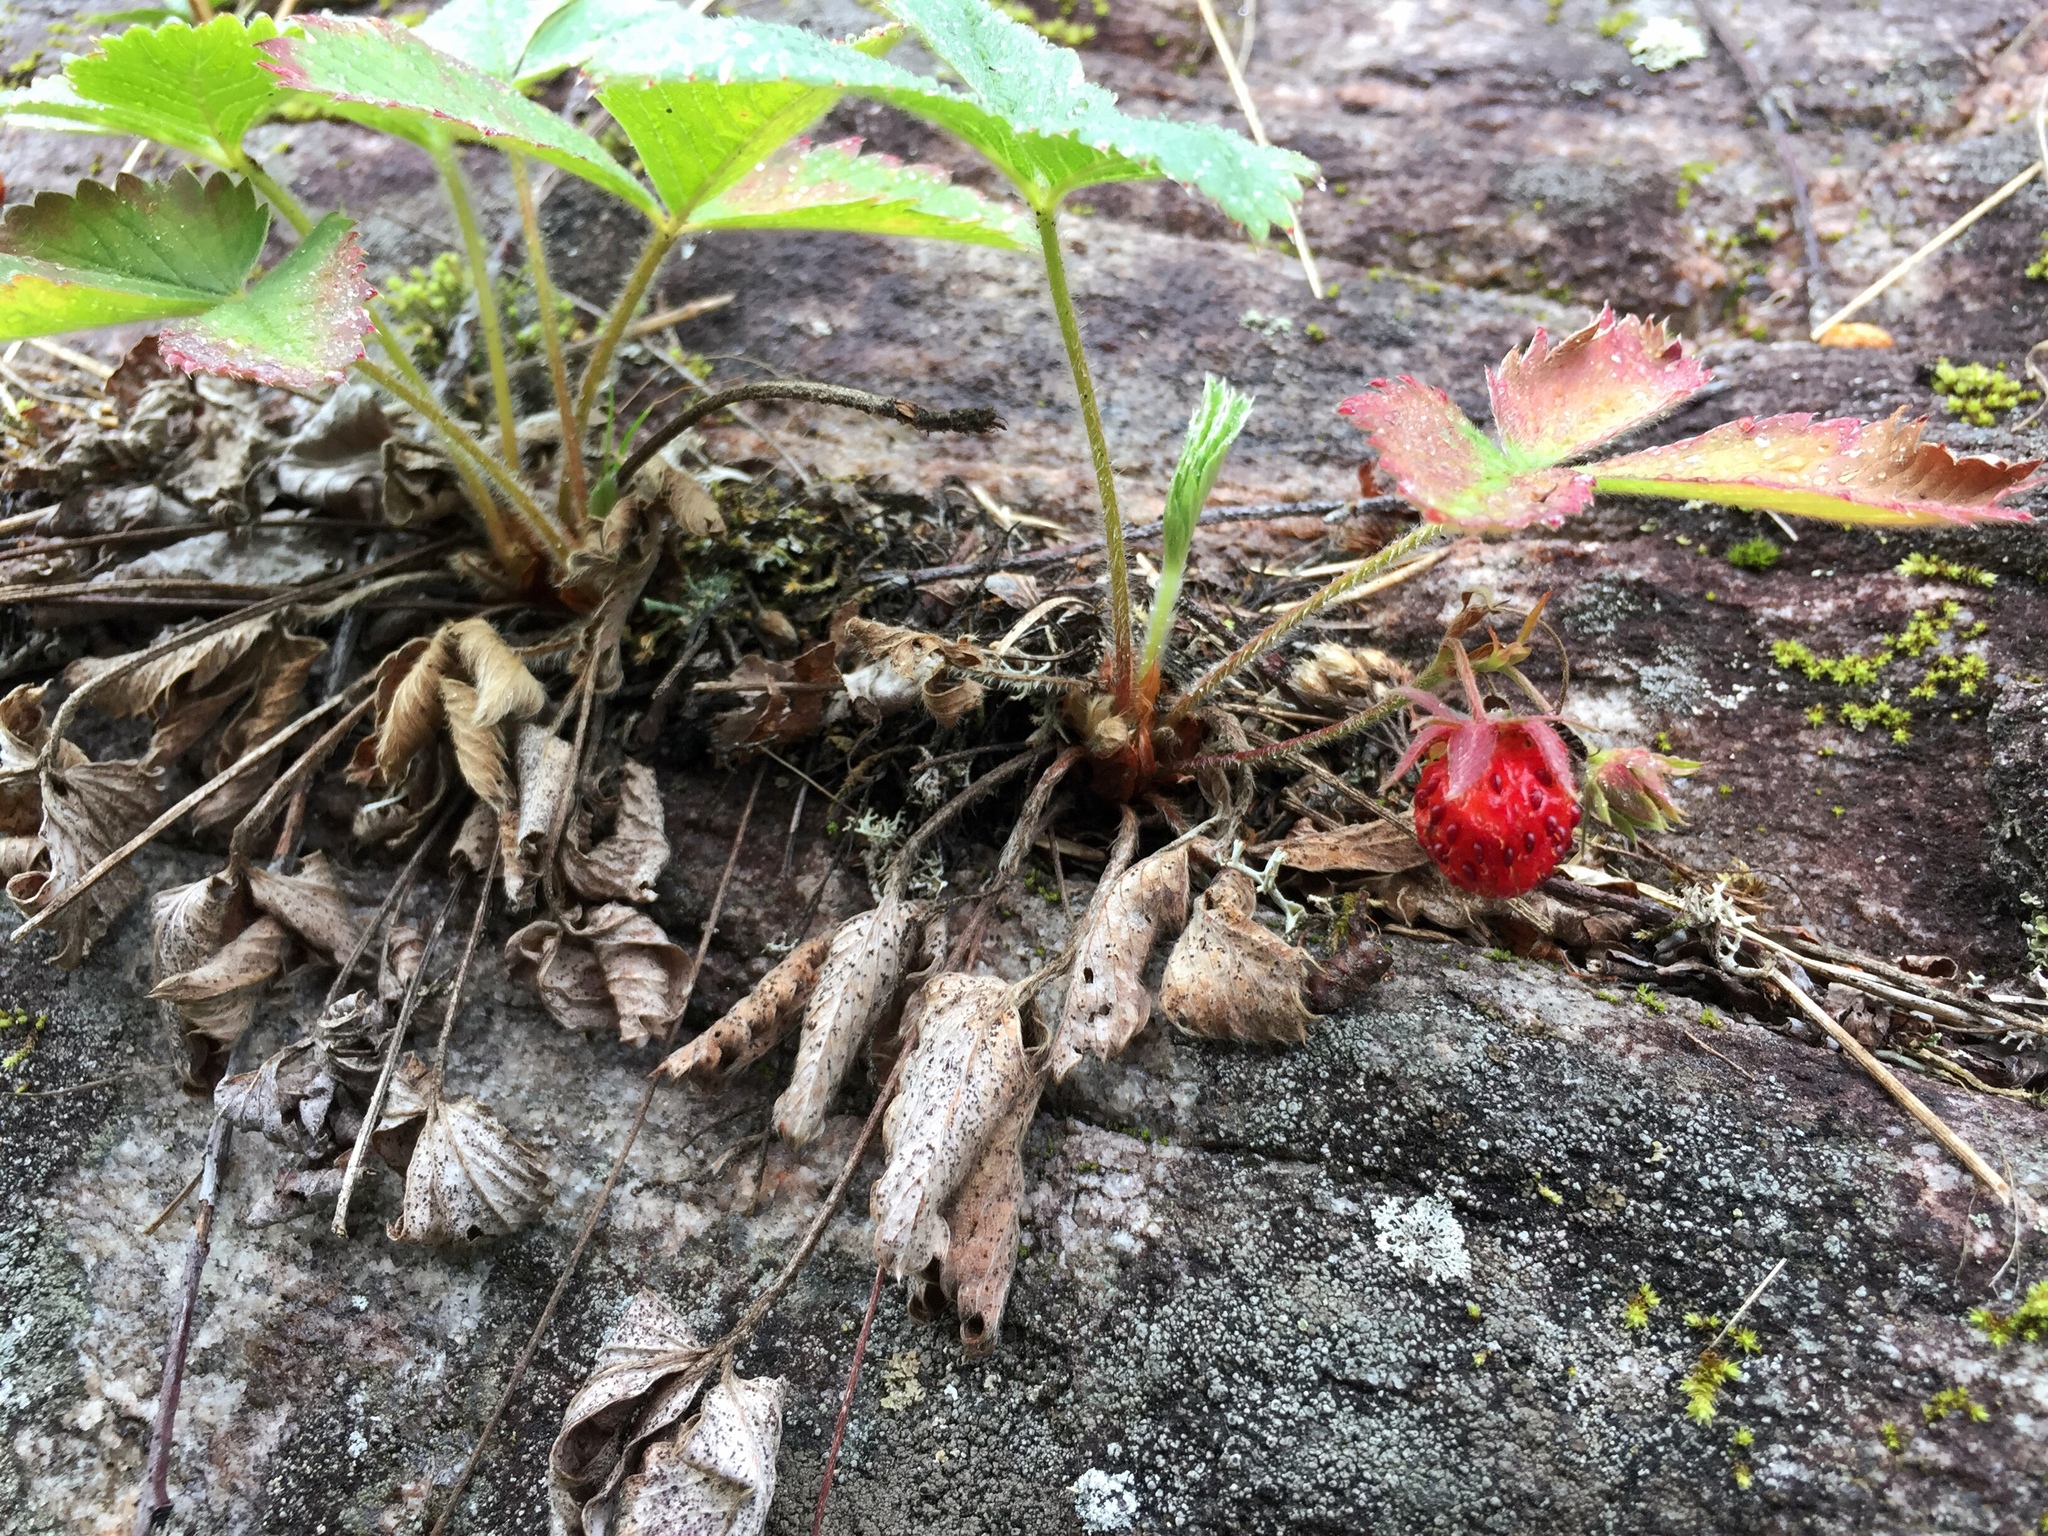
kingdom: Plantae
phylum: Tracheophyta
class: Magnoliopsida
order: Rosales
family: Rosaceae
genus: Fragaria
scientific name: Fragaria virginiana
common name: Thickleaved wild strawberry
